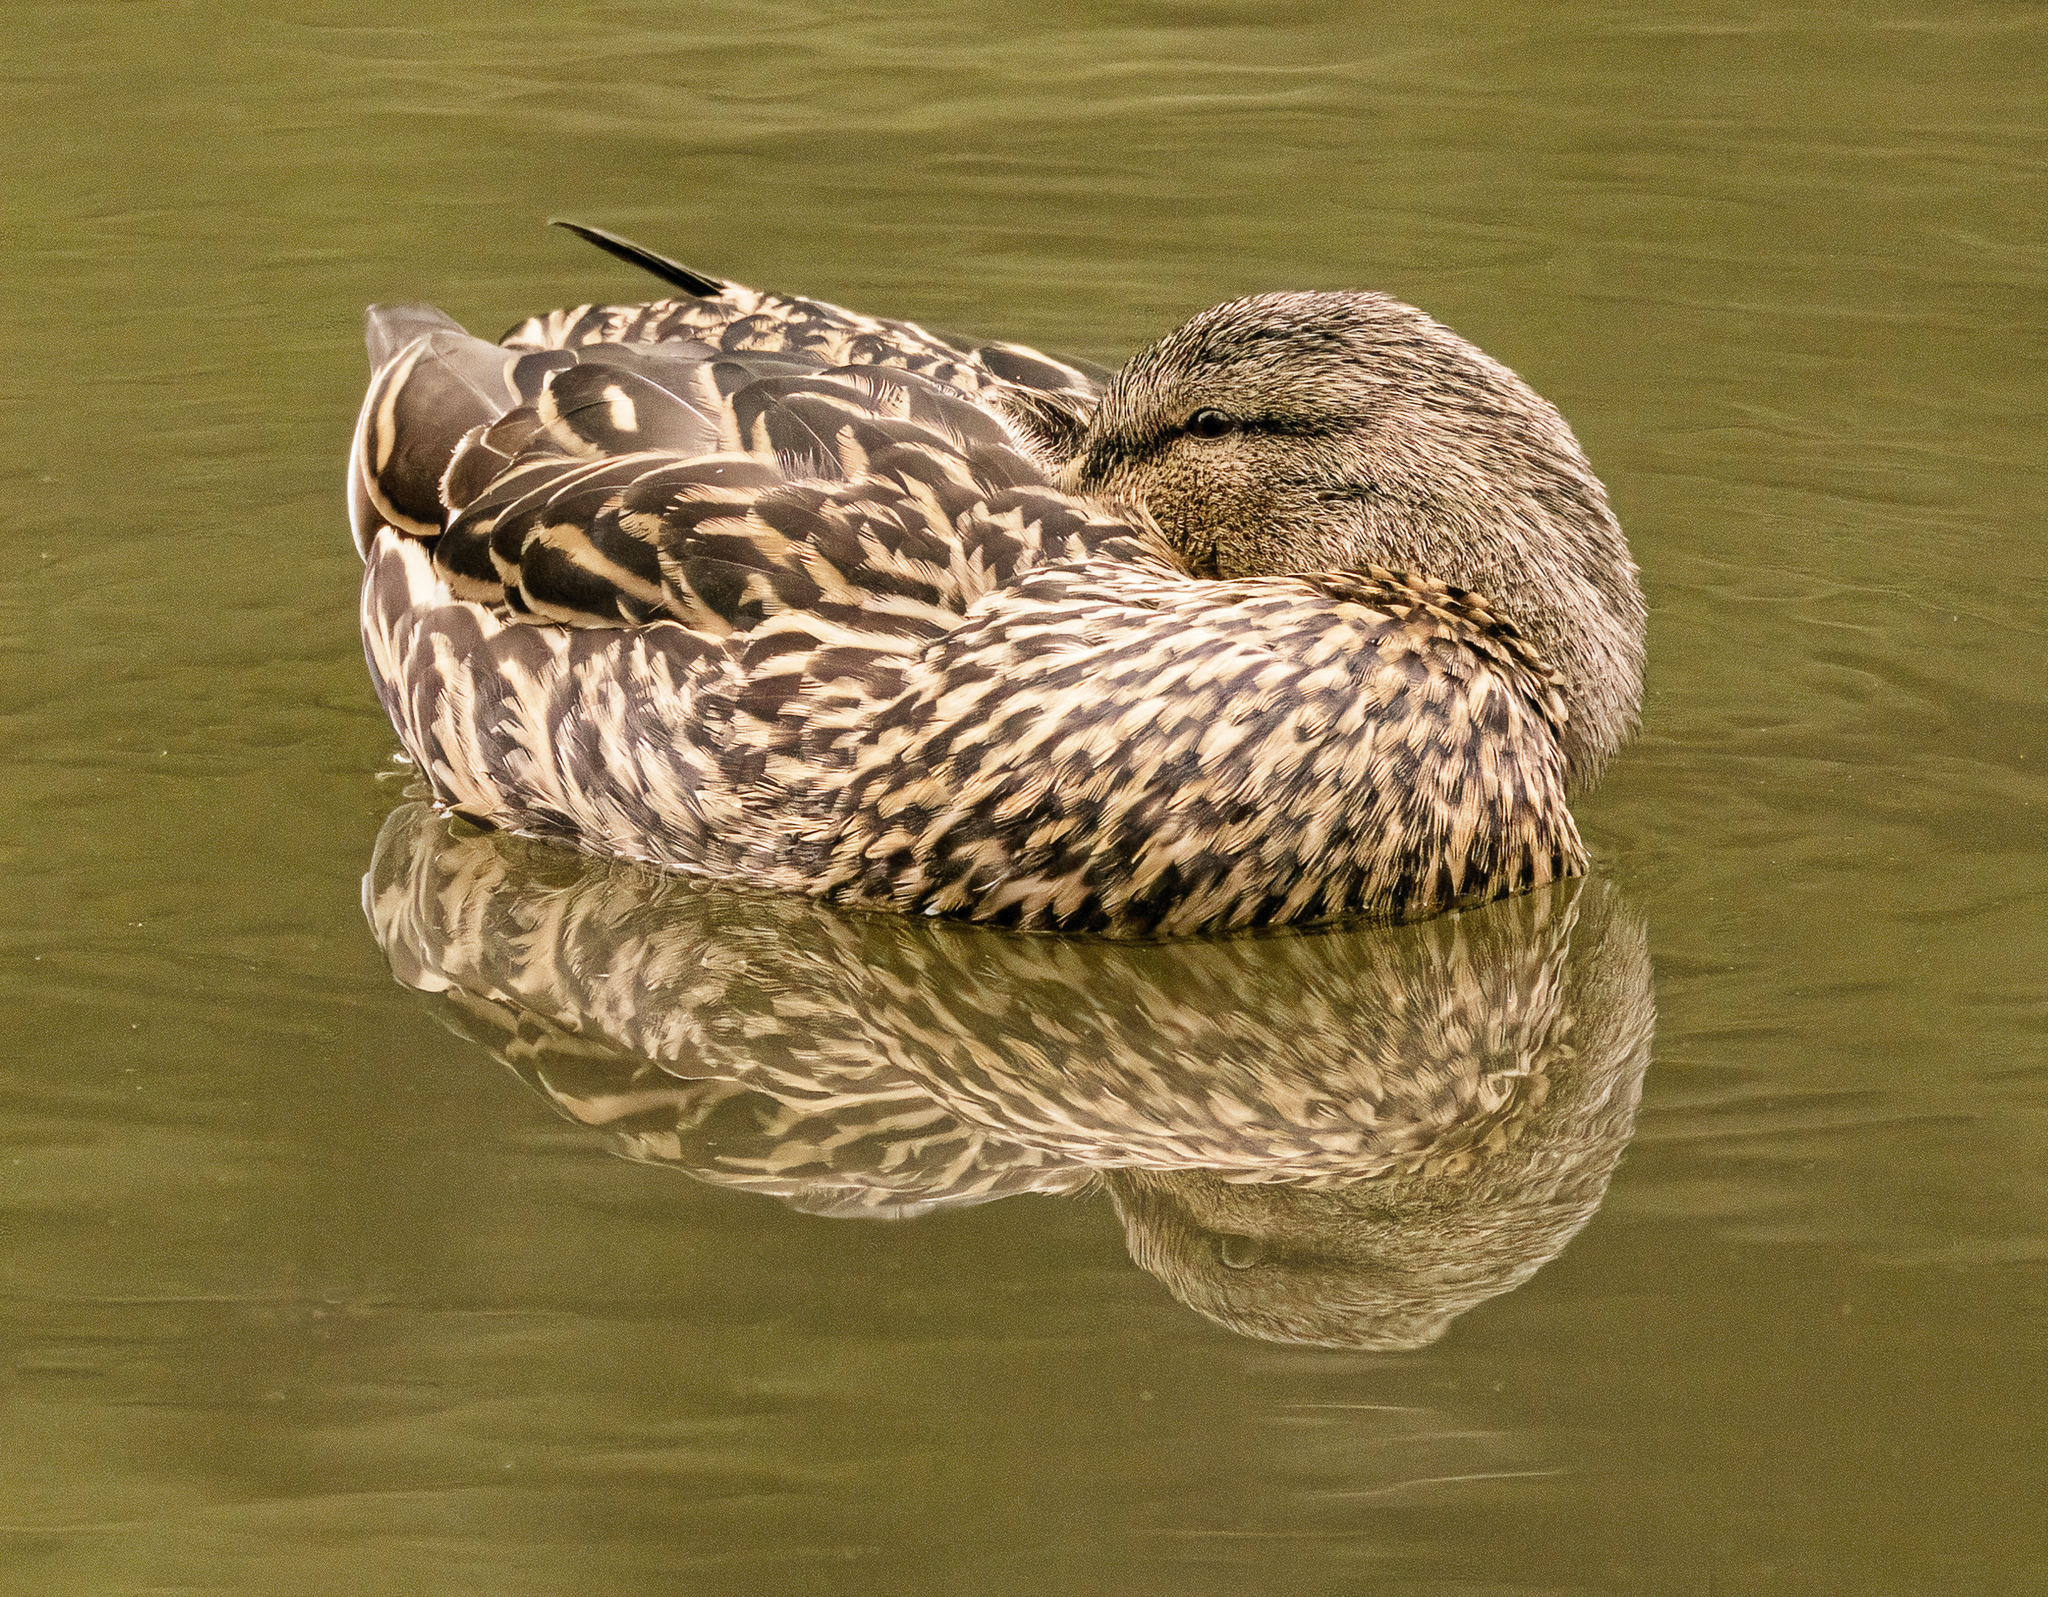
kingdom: Animalia
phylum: Chordata
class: Aves
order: Anseriformes
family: Anatidae
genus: Anas
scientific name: Anas platyrhynchos
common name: Mallard
